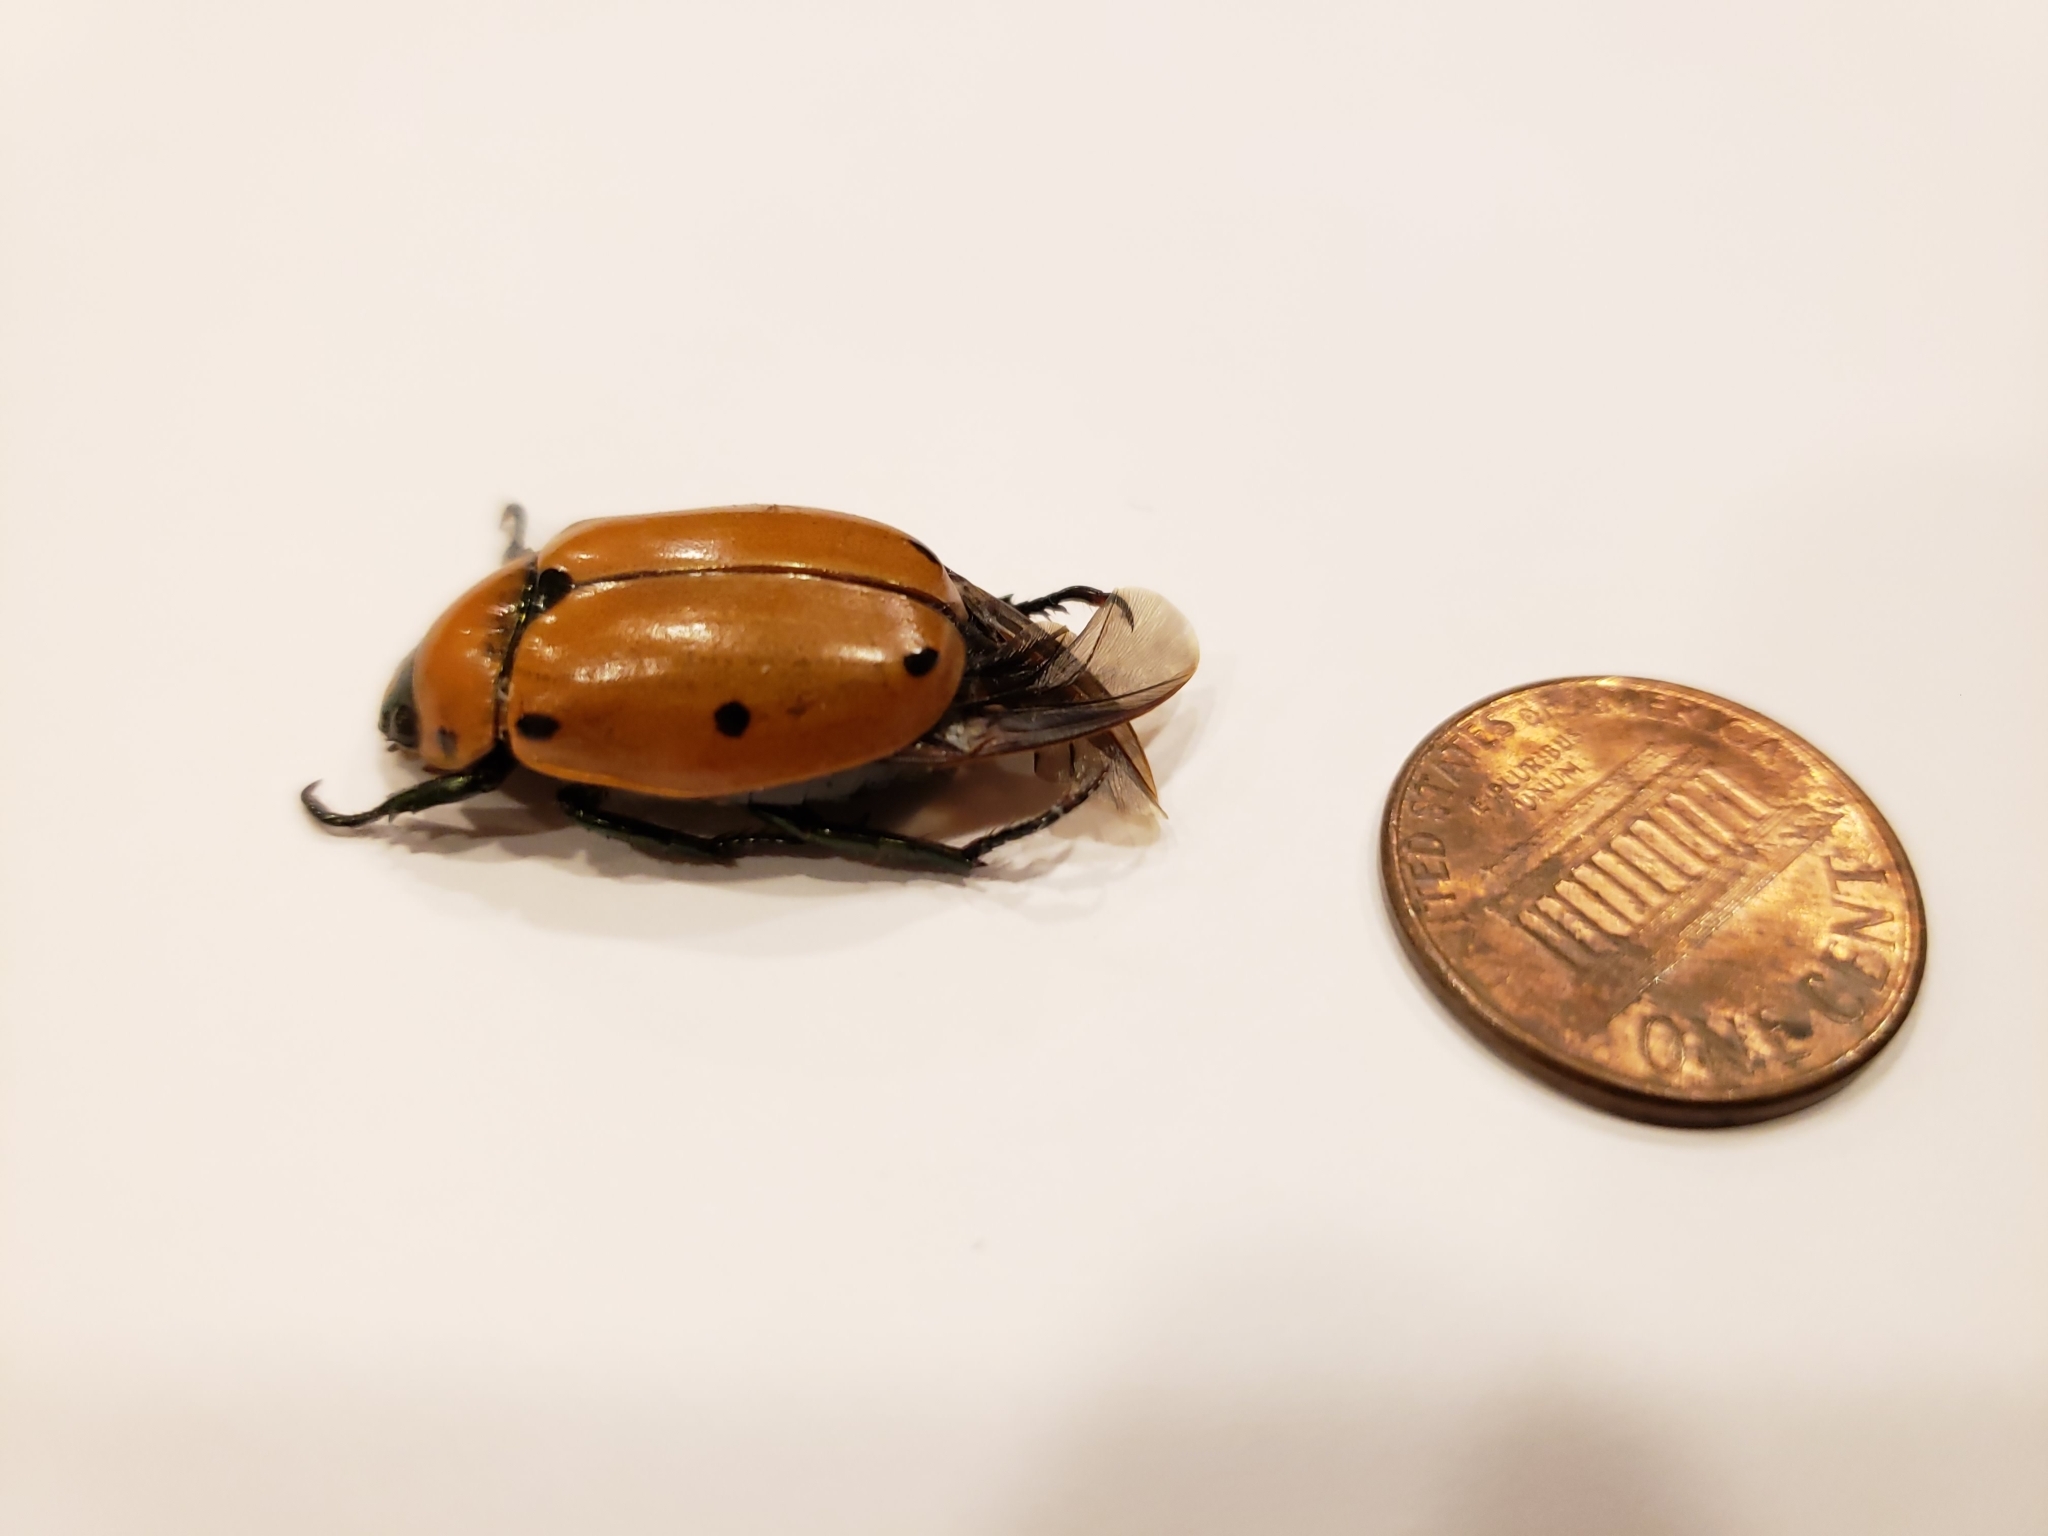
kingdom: Animalia
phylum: Arthropoda
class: Insecta
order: Coleoptera
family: Scarabaeidae
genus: Pelidnota
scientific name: Pelidnota punctata
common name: Grapevine beetle
